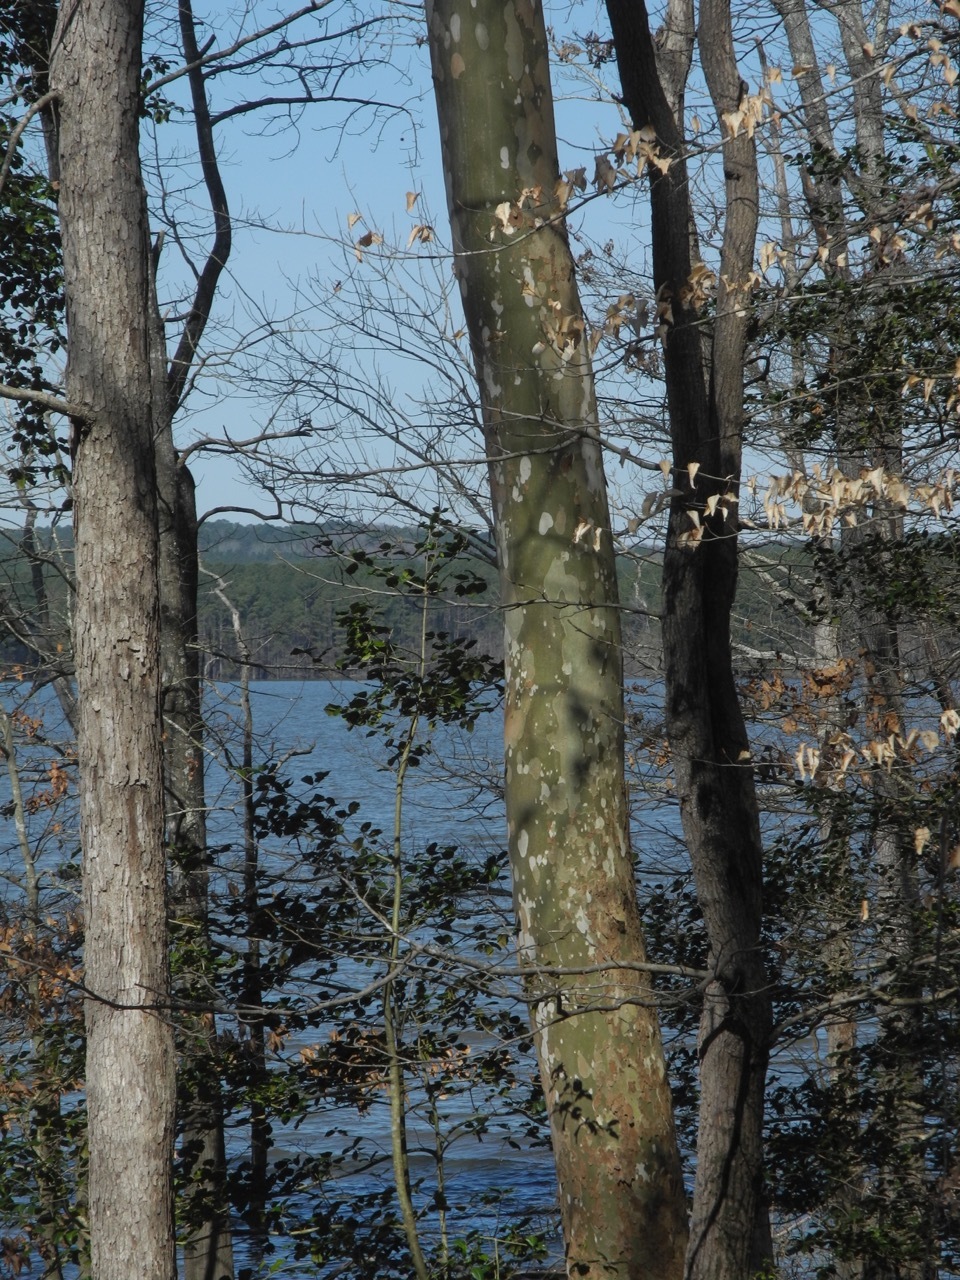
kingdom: Plantae
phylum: Tracheophyta
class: Magnoliopsida
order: Proteales
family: Platanaceae
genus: Platanus
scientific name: Platanus occidentalis
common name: American sycamore
